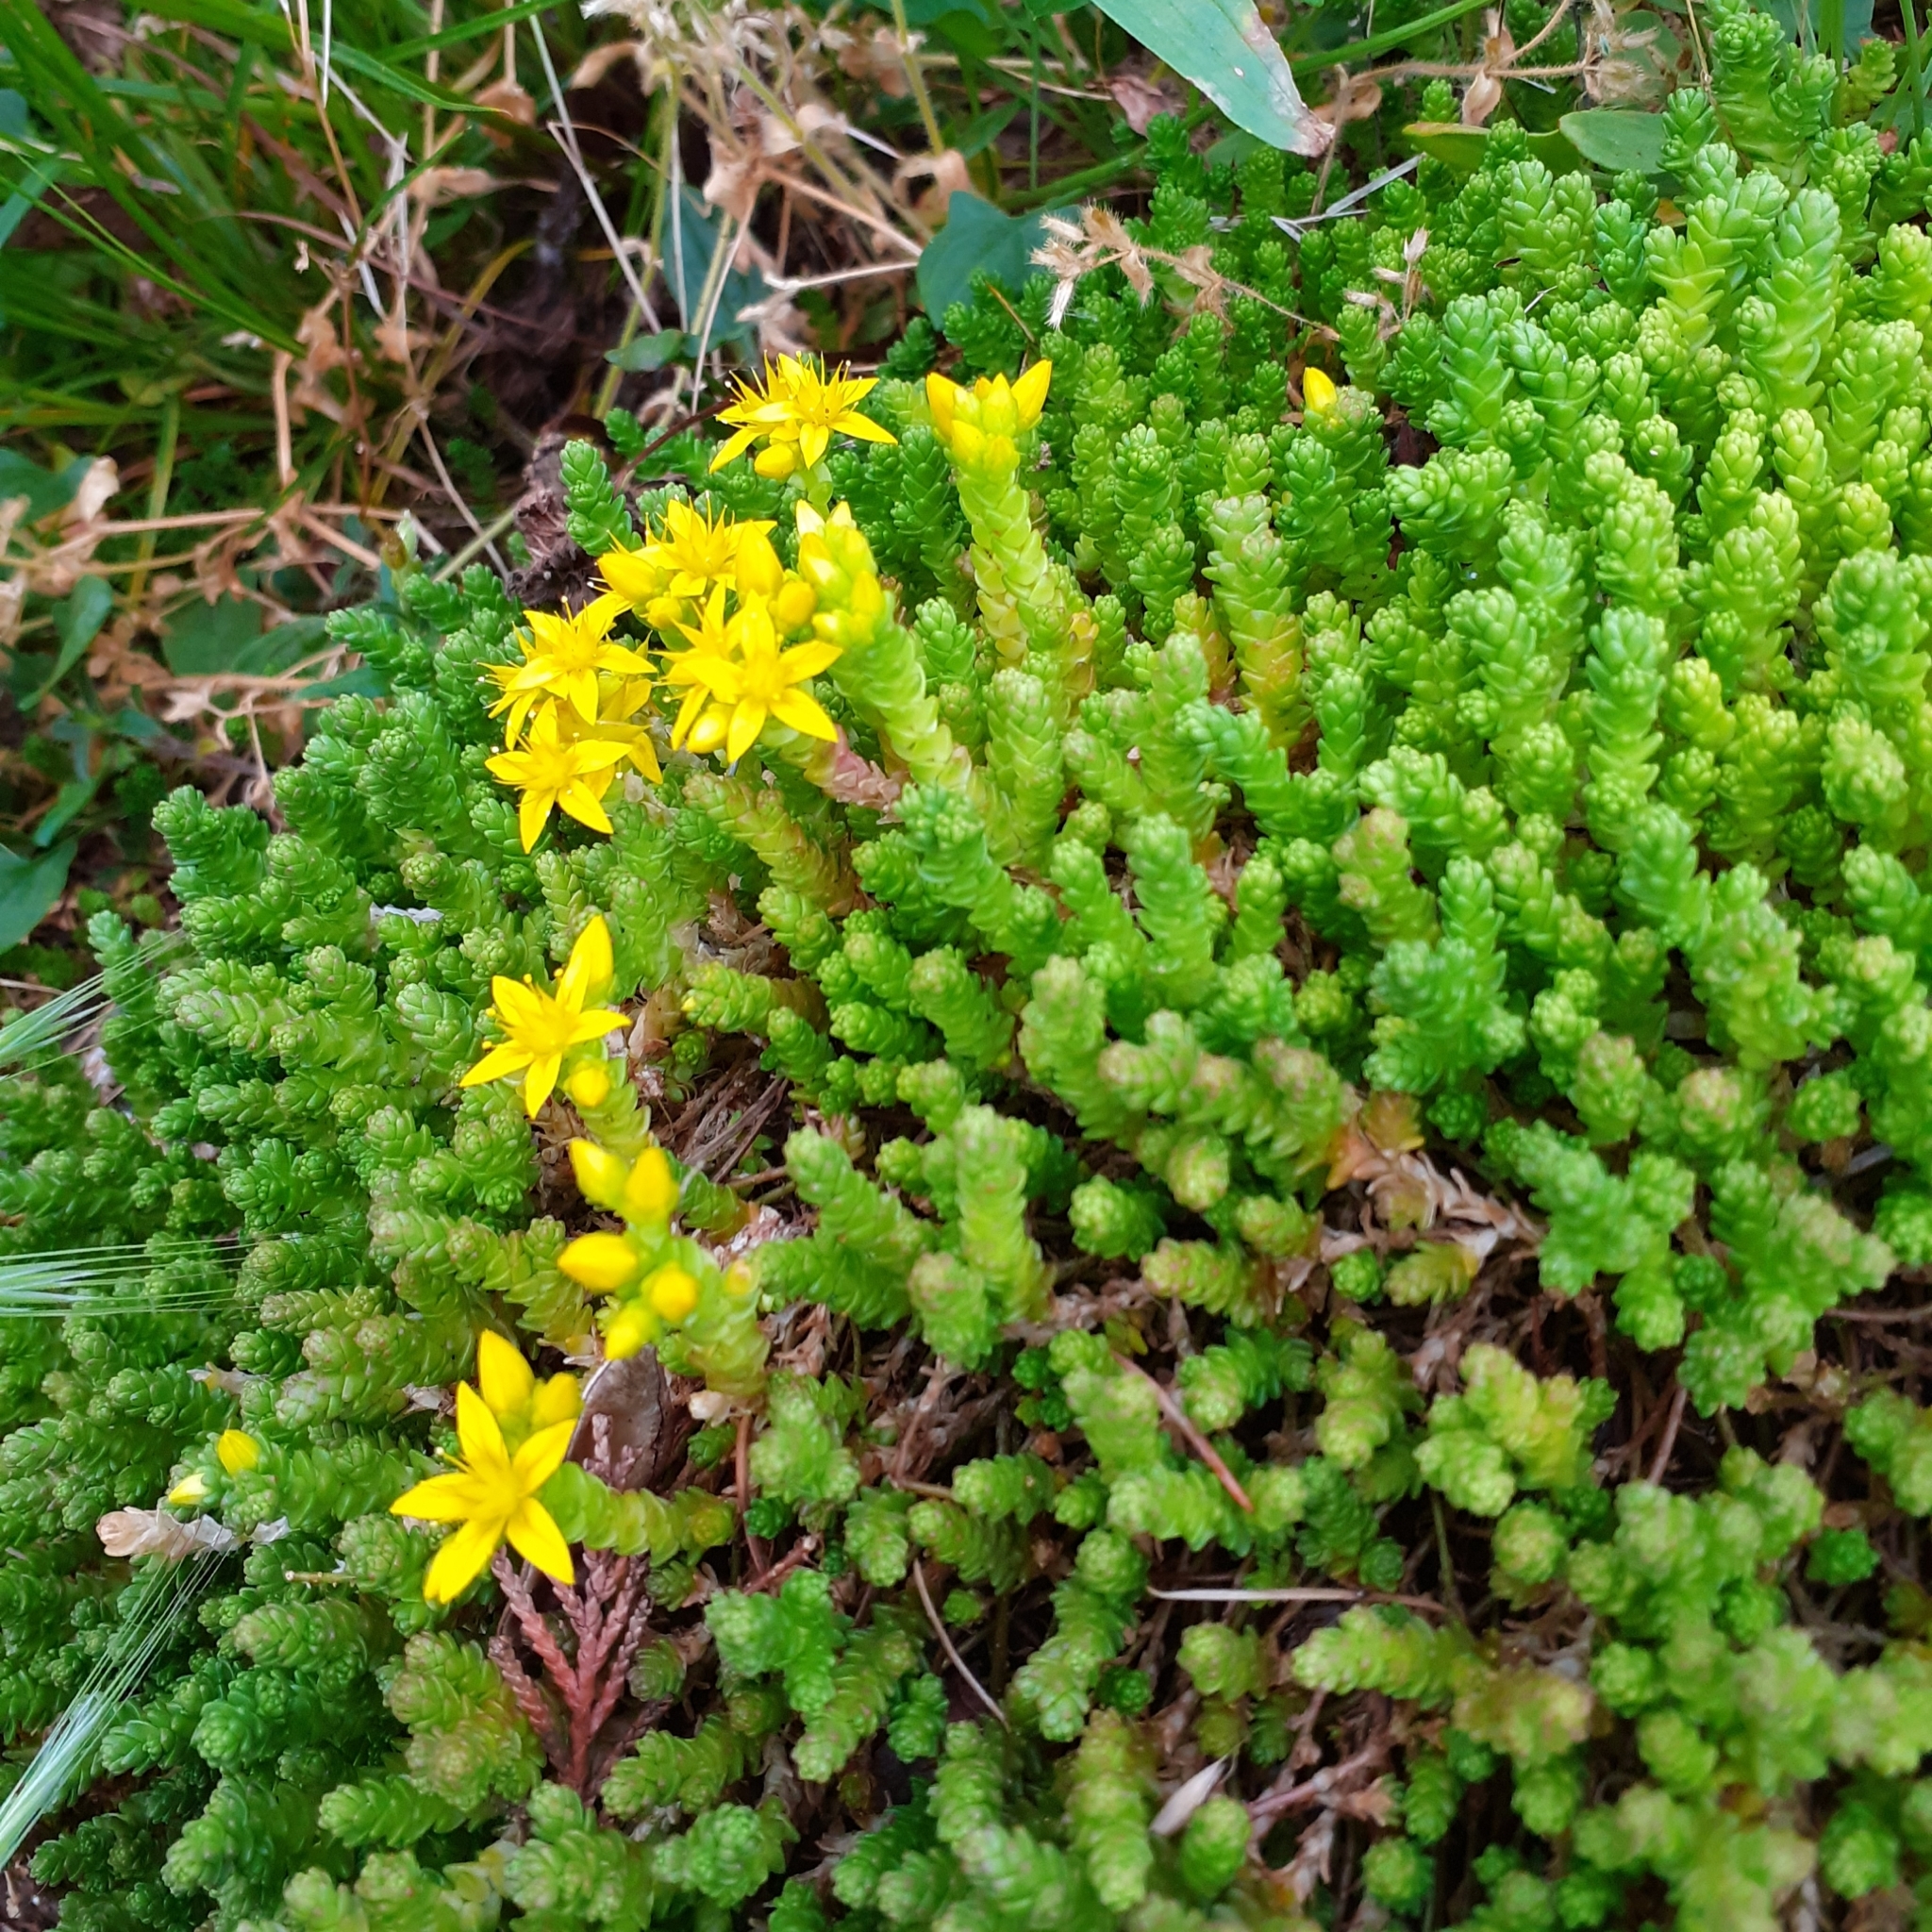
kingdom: Plantae
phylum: Tracheophyta
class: Magnoliopsida
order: Saxifragales
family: Crassulaceae
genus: Sedum
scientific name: Sedum acre
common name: Biting stonecrop
